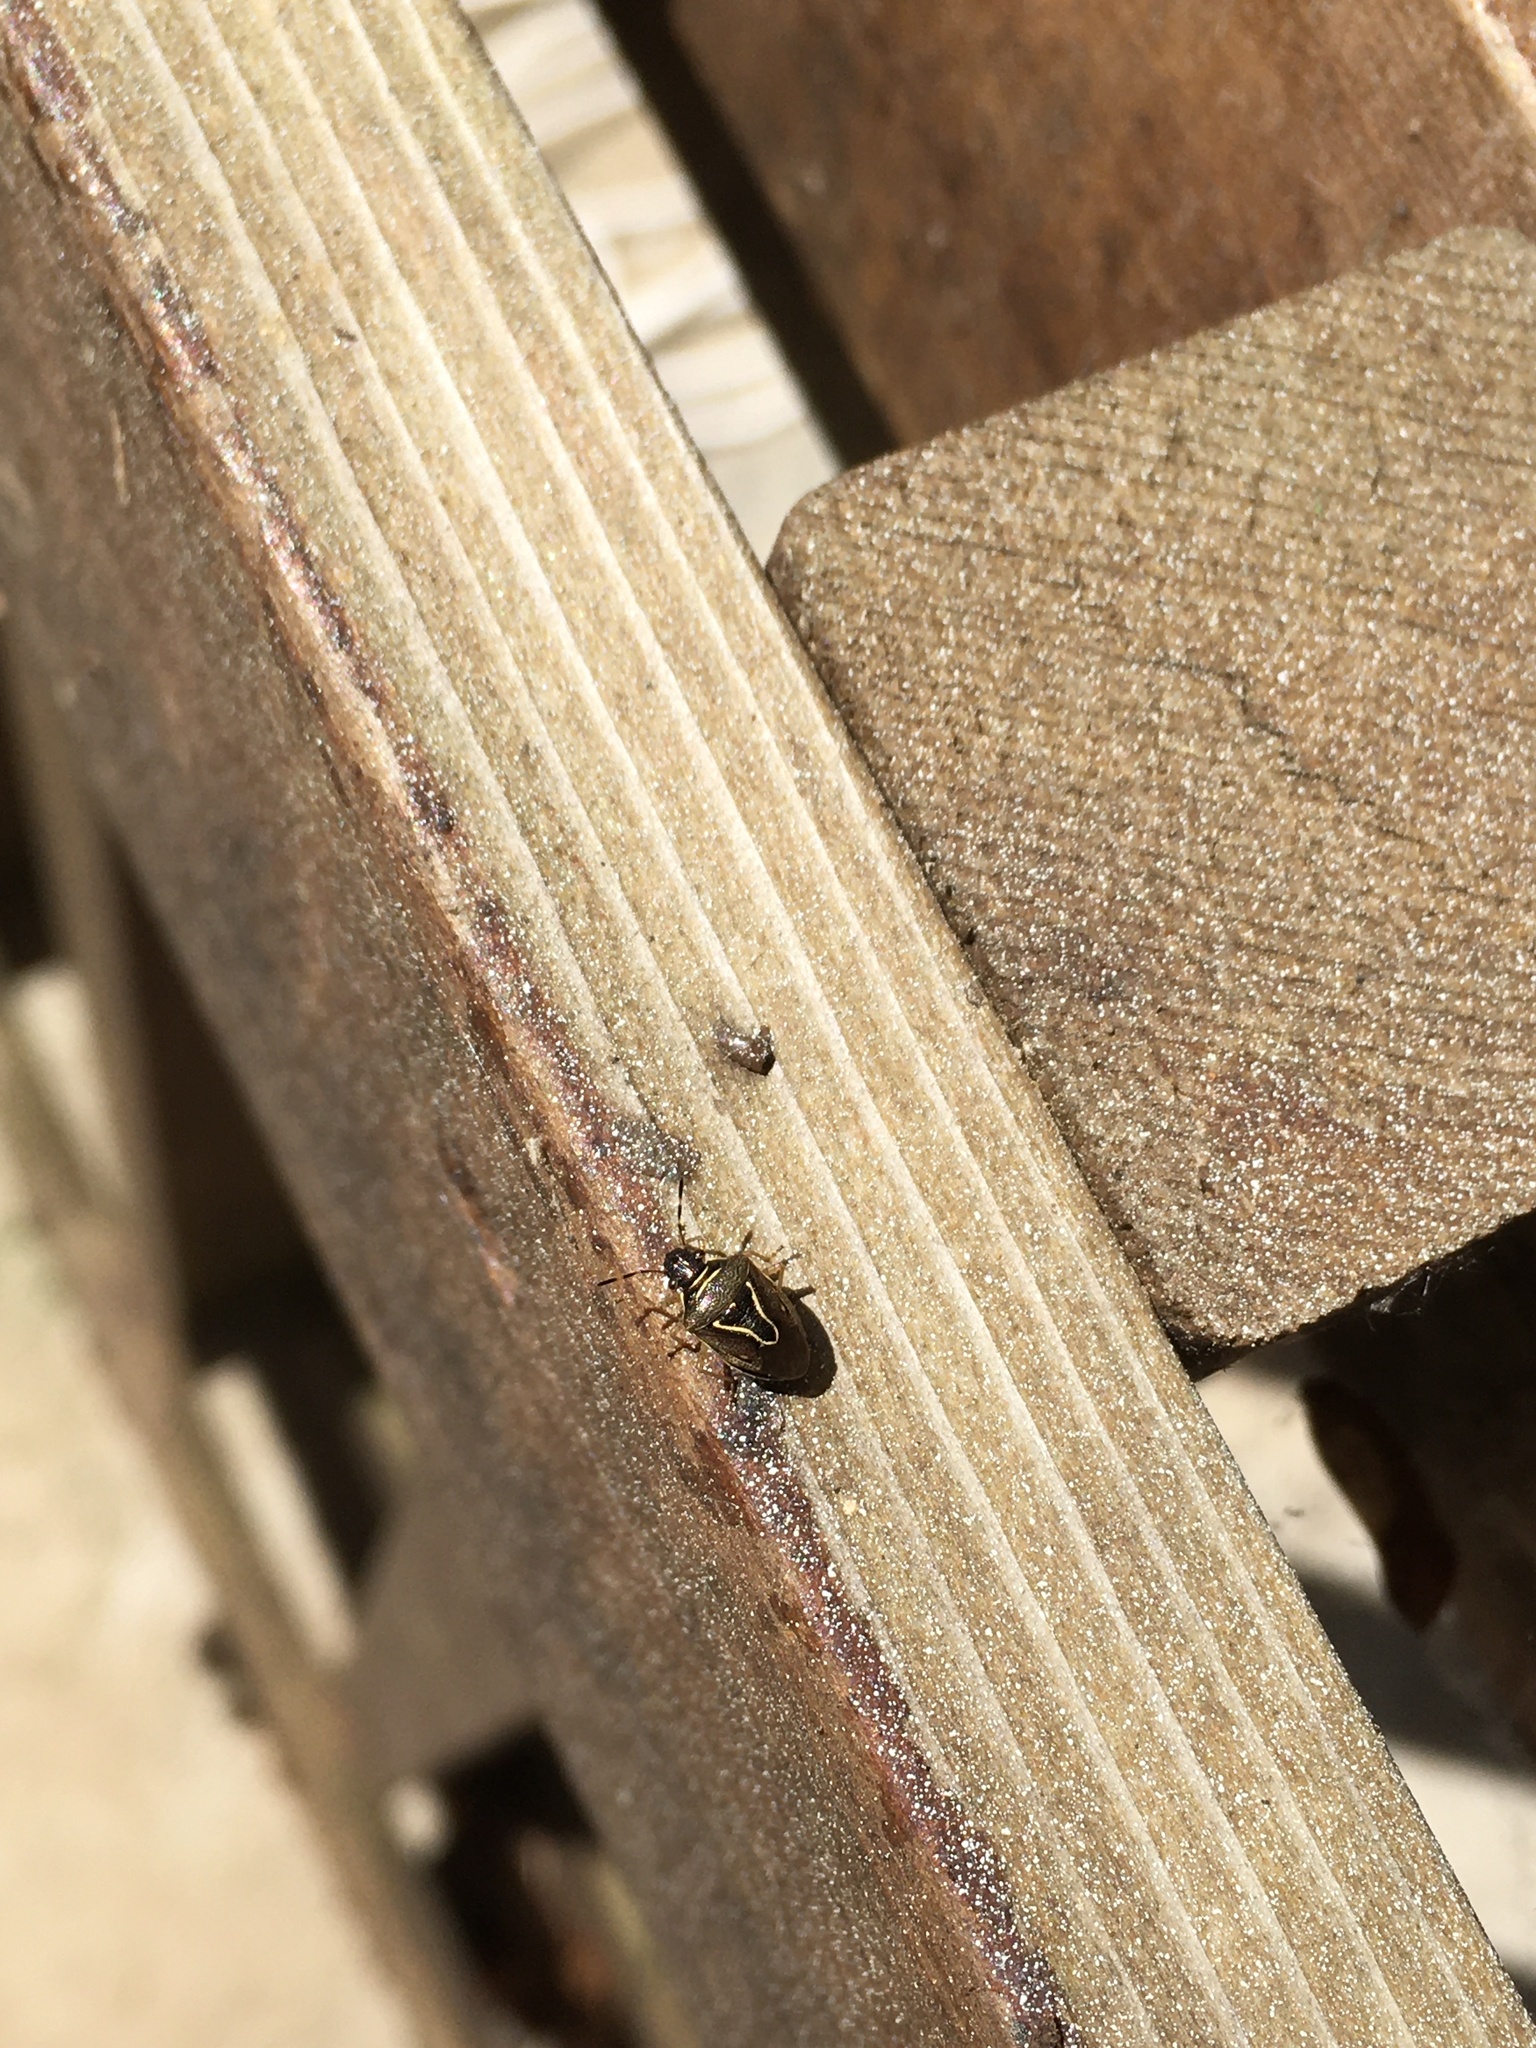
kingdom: Animalia
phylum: Arthropoda
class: Insecta
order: Hemiptera
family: Pentatomidae
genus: Mormidea
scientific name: Mormidea lugens
